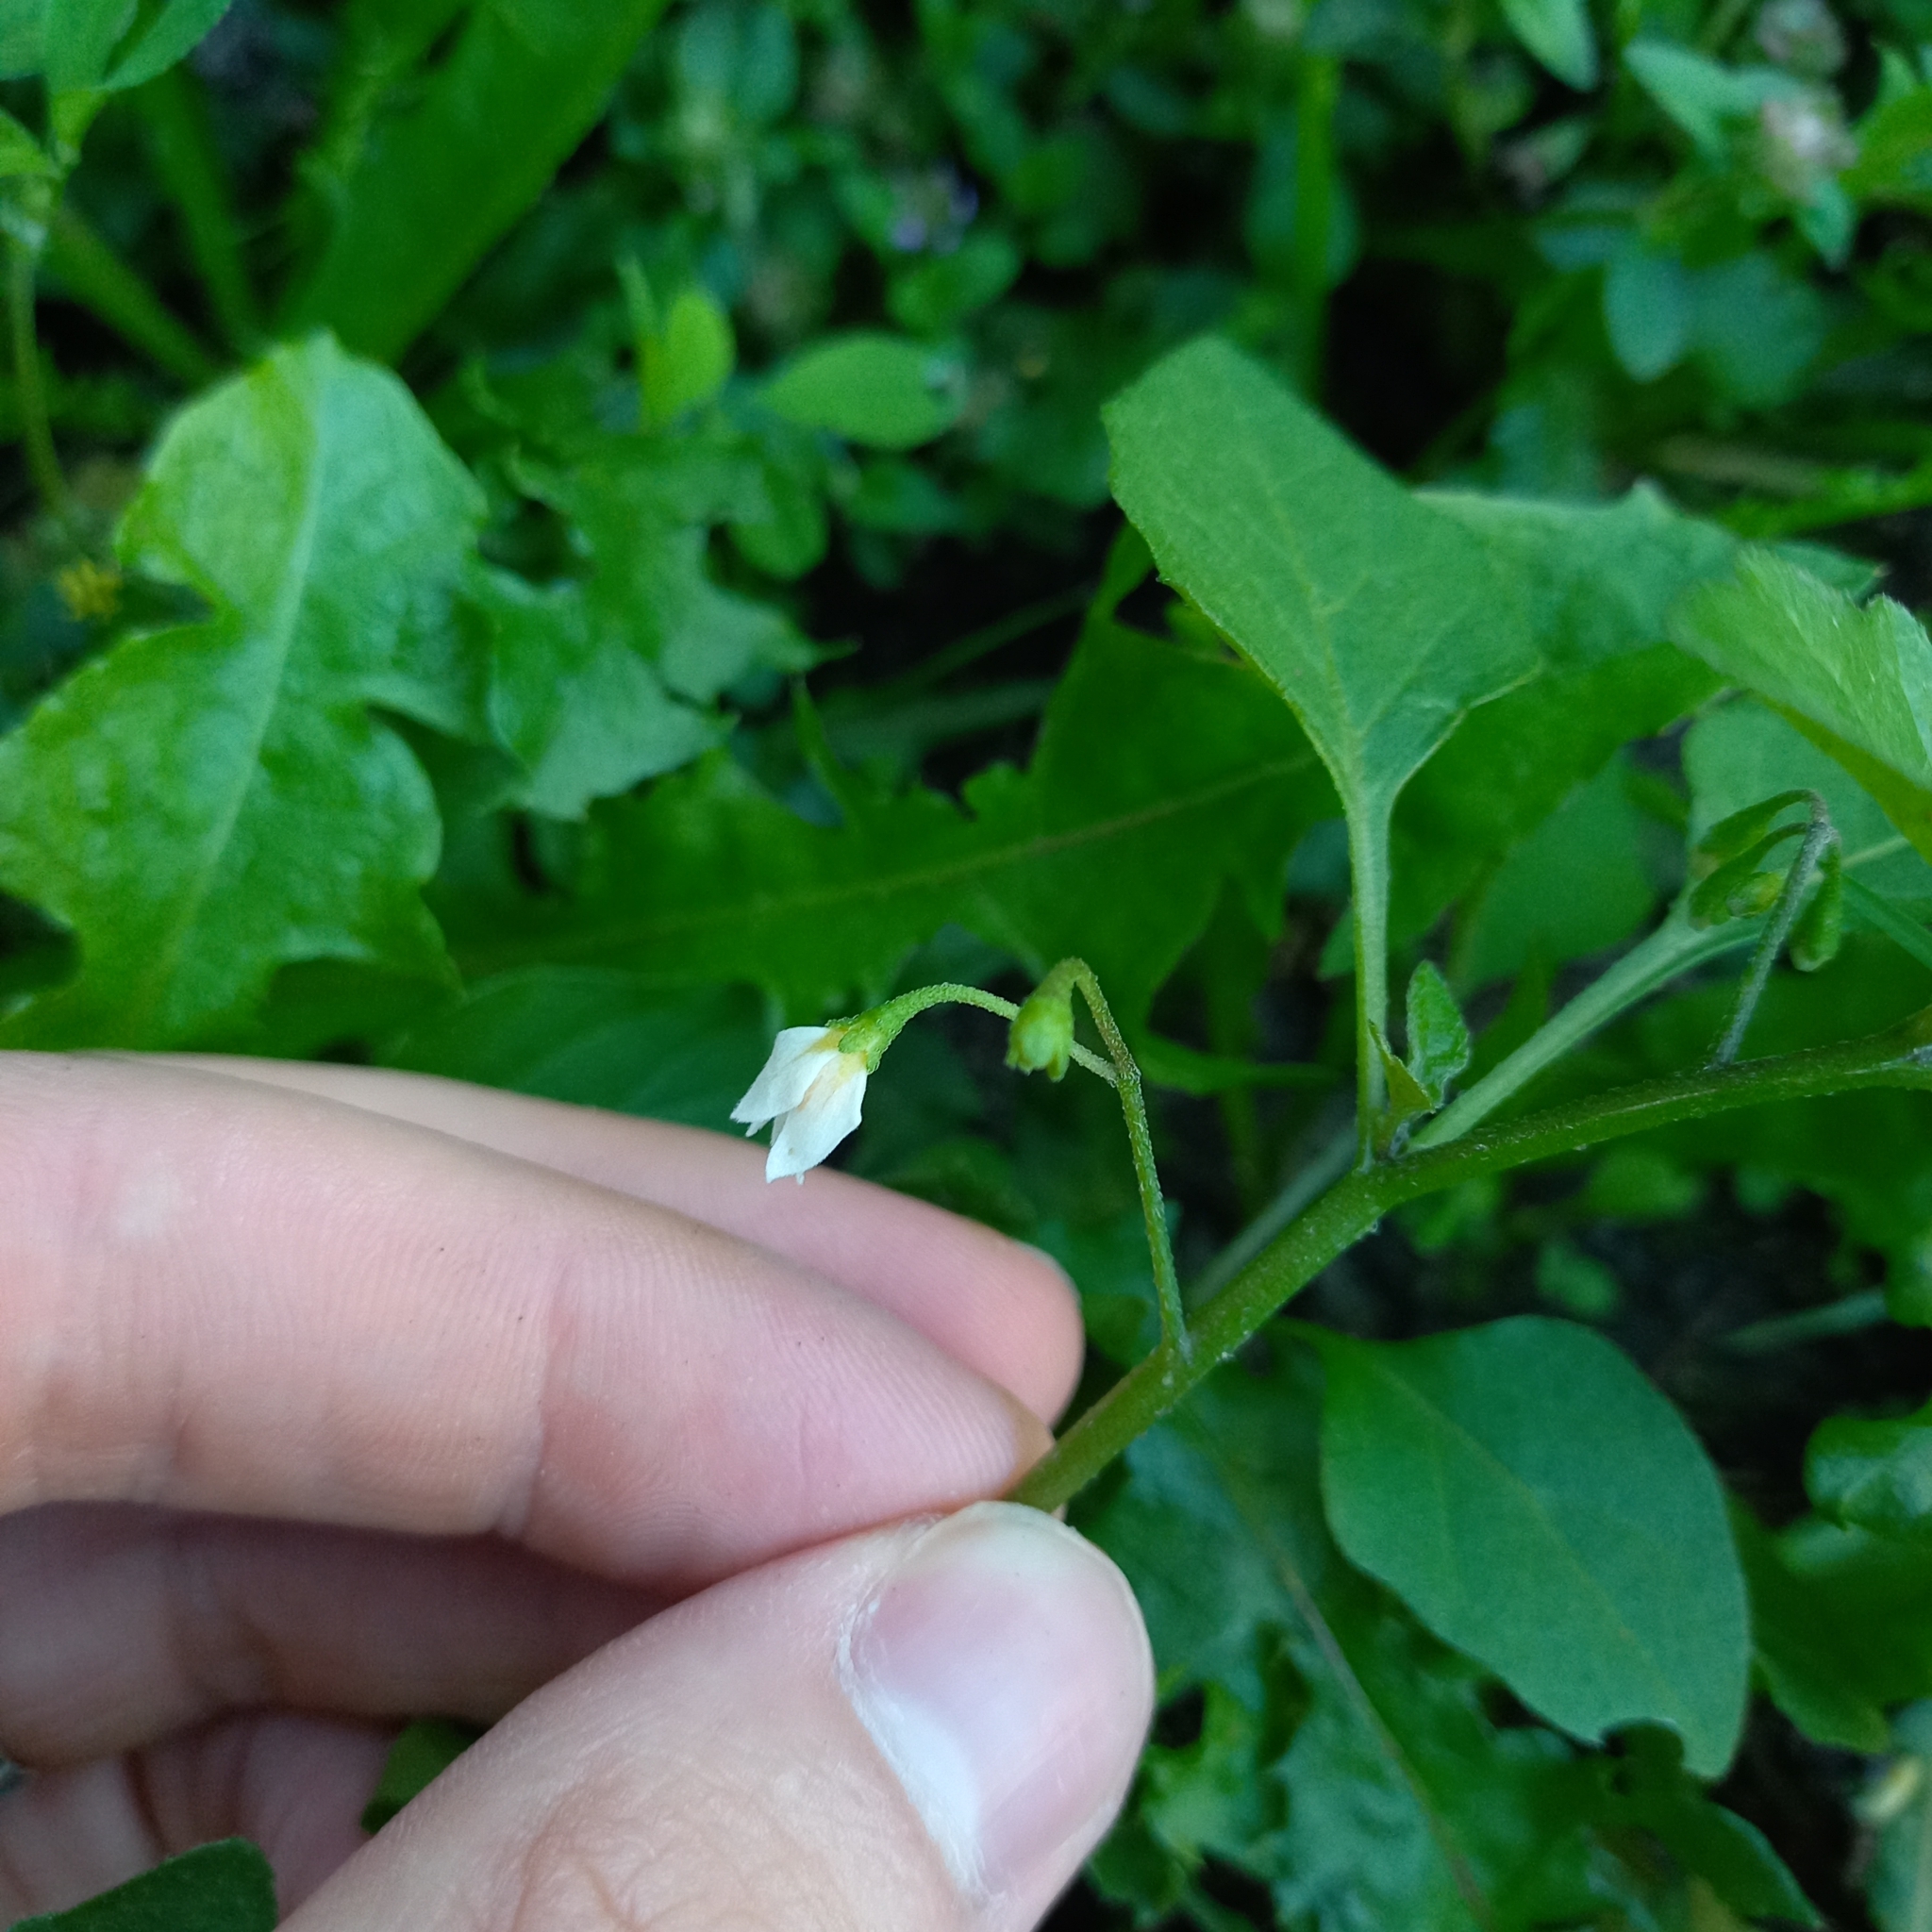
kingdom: Plantae
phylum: Tracheophyta
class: Magnoliopsida
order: Solanales
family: Solanaceae
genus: Solanum
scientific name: Solanum nigrum
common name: Black nightshade
